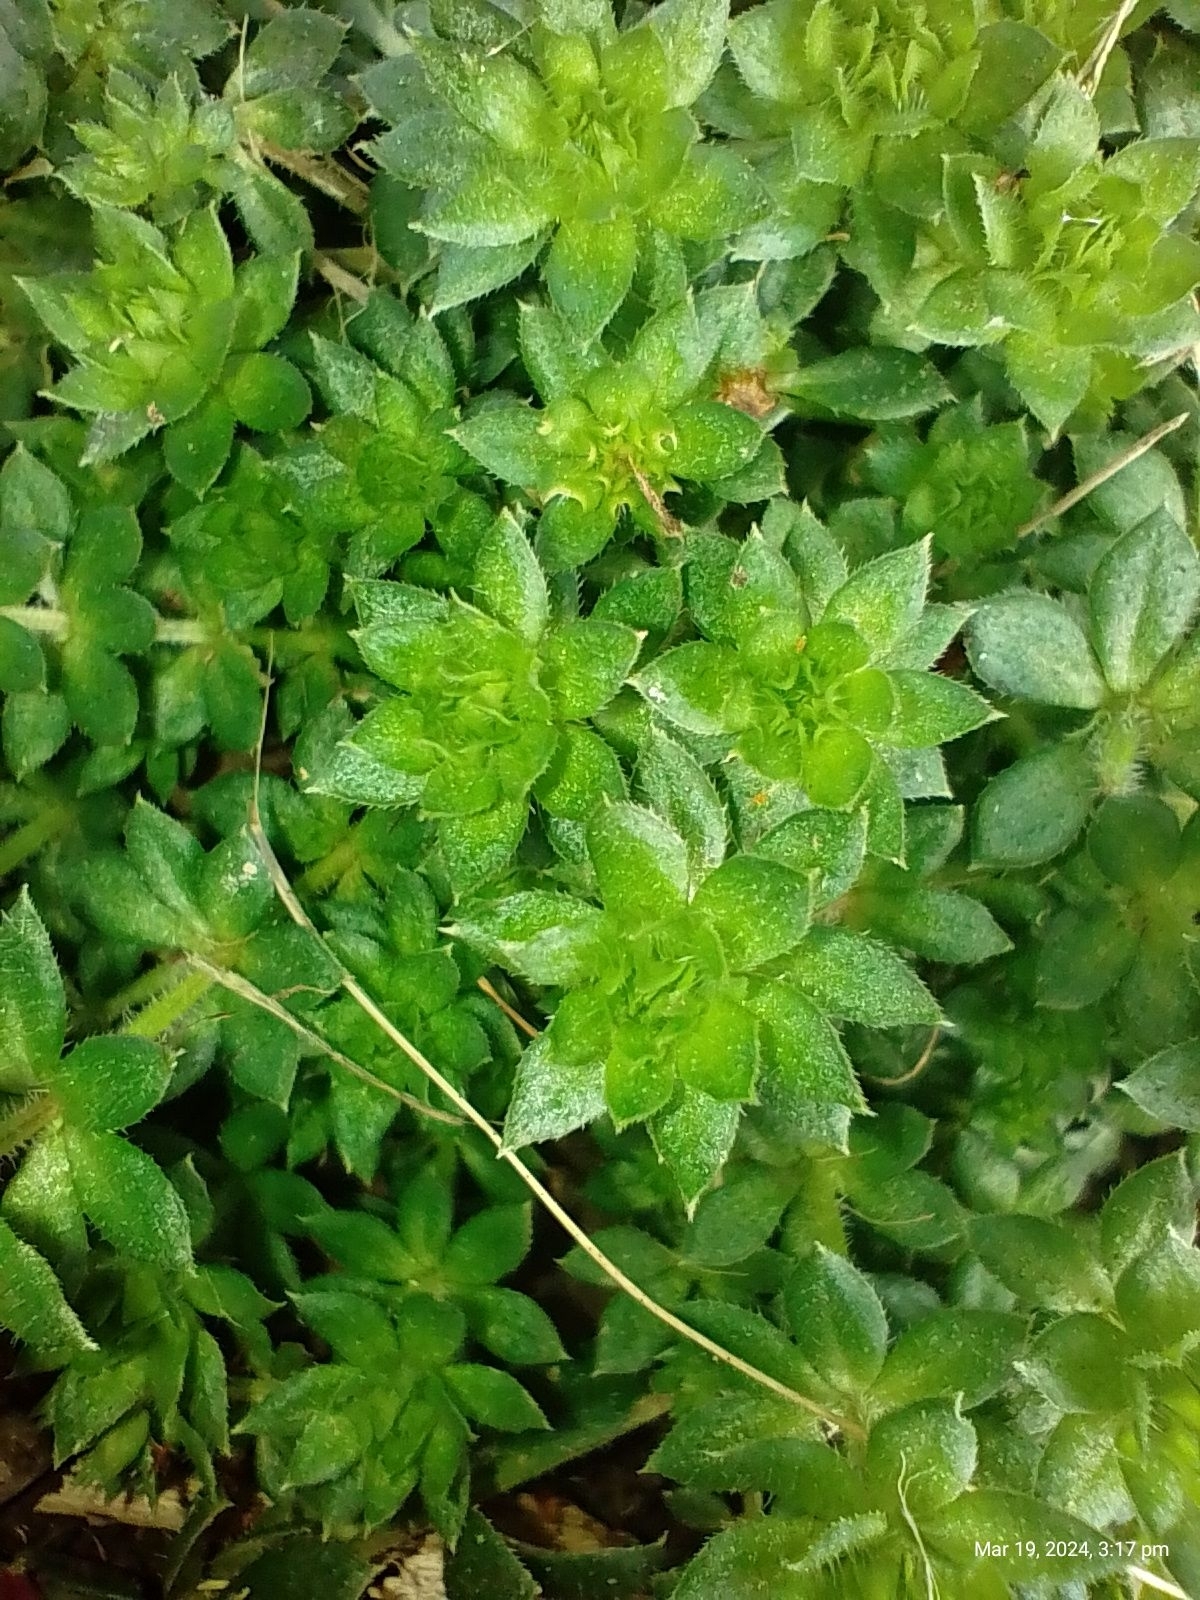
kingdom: Plantae
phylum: Tracheophyta
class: Magnoliopsida
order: Gentianales
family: Rubiaceae
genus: Sherardia
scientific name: Sherardia arvensis
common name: Field madder
